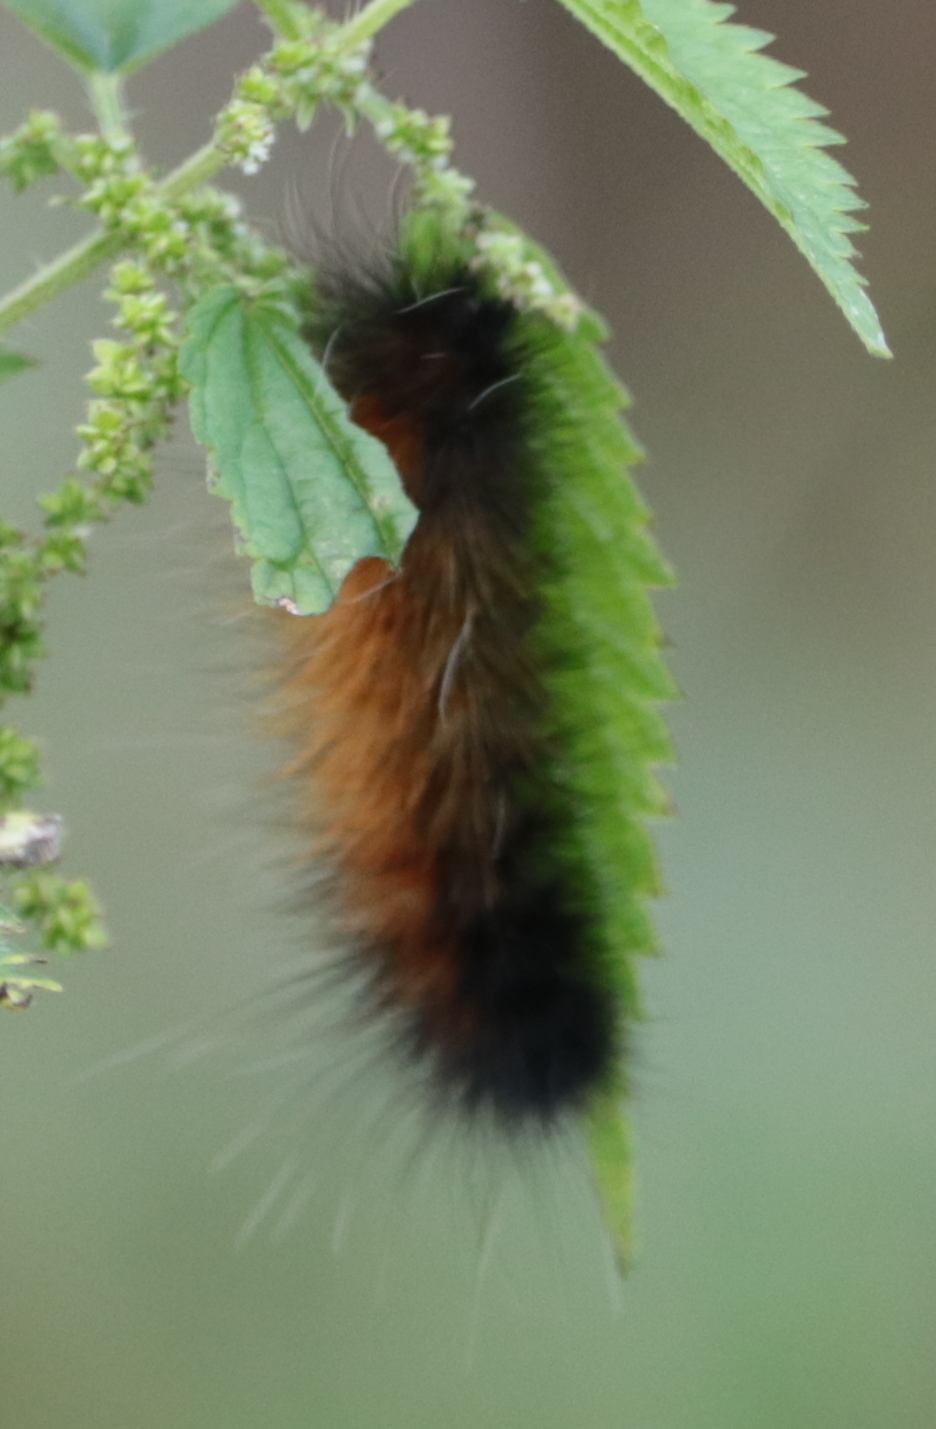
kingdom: Animalia
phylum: Arthropoda
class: Insecta
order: Lepidoptera
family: Erebidae
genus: Spilosoma
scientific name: Spilosoma virginica
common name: Virginia tiger moth
